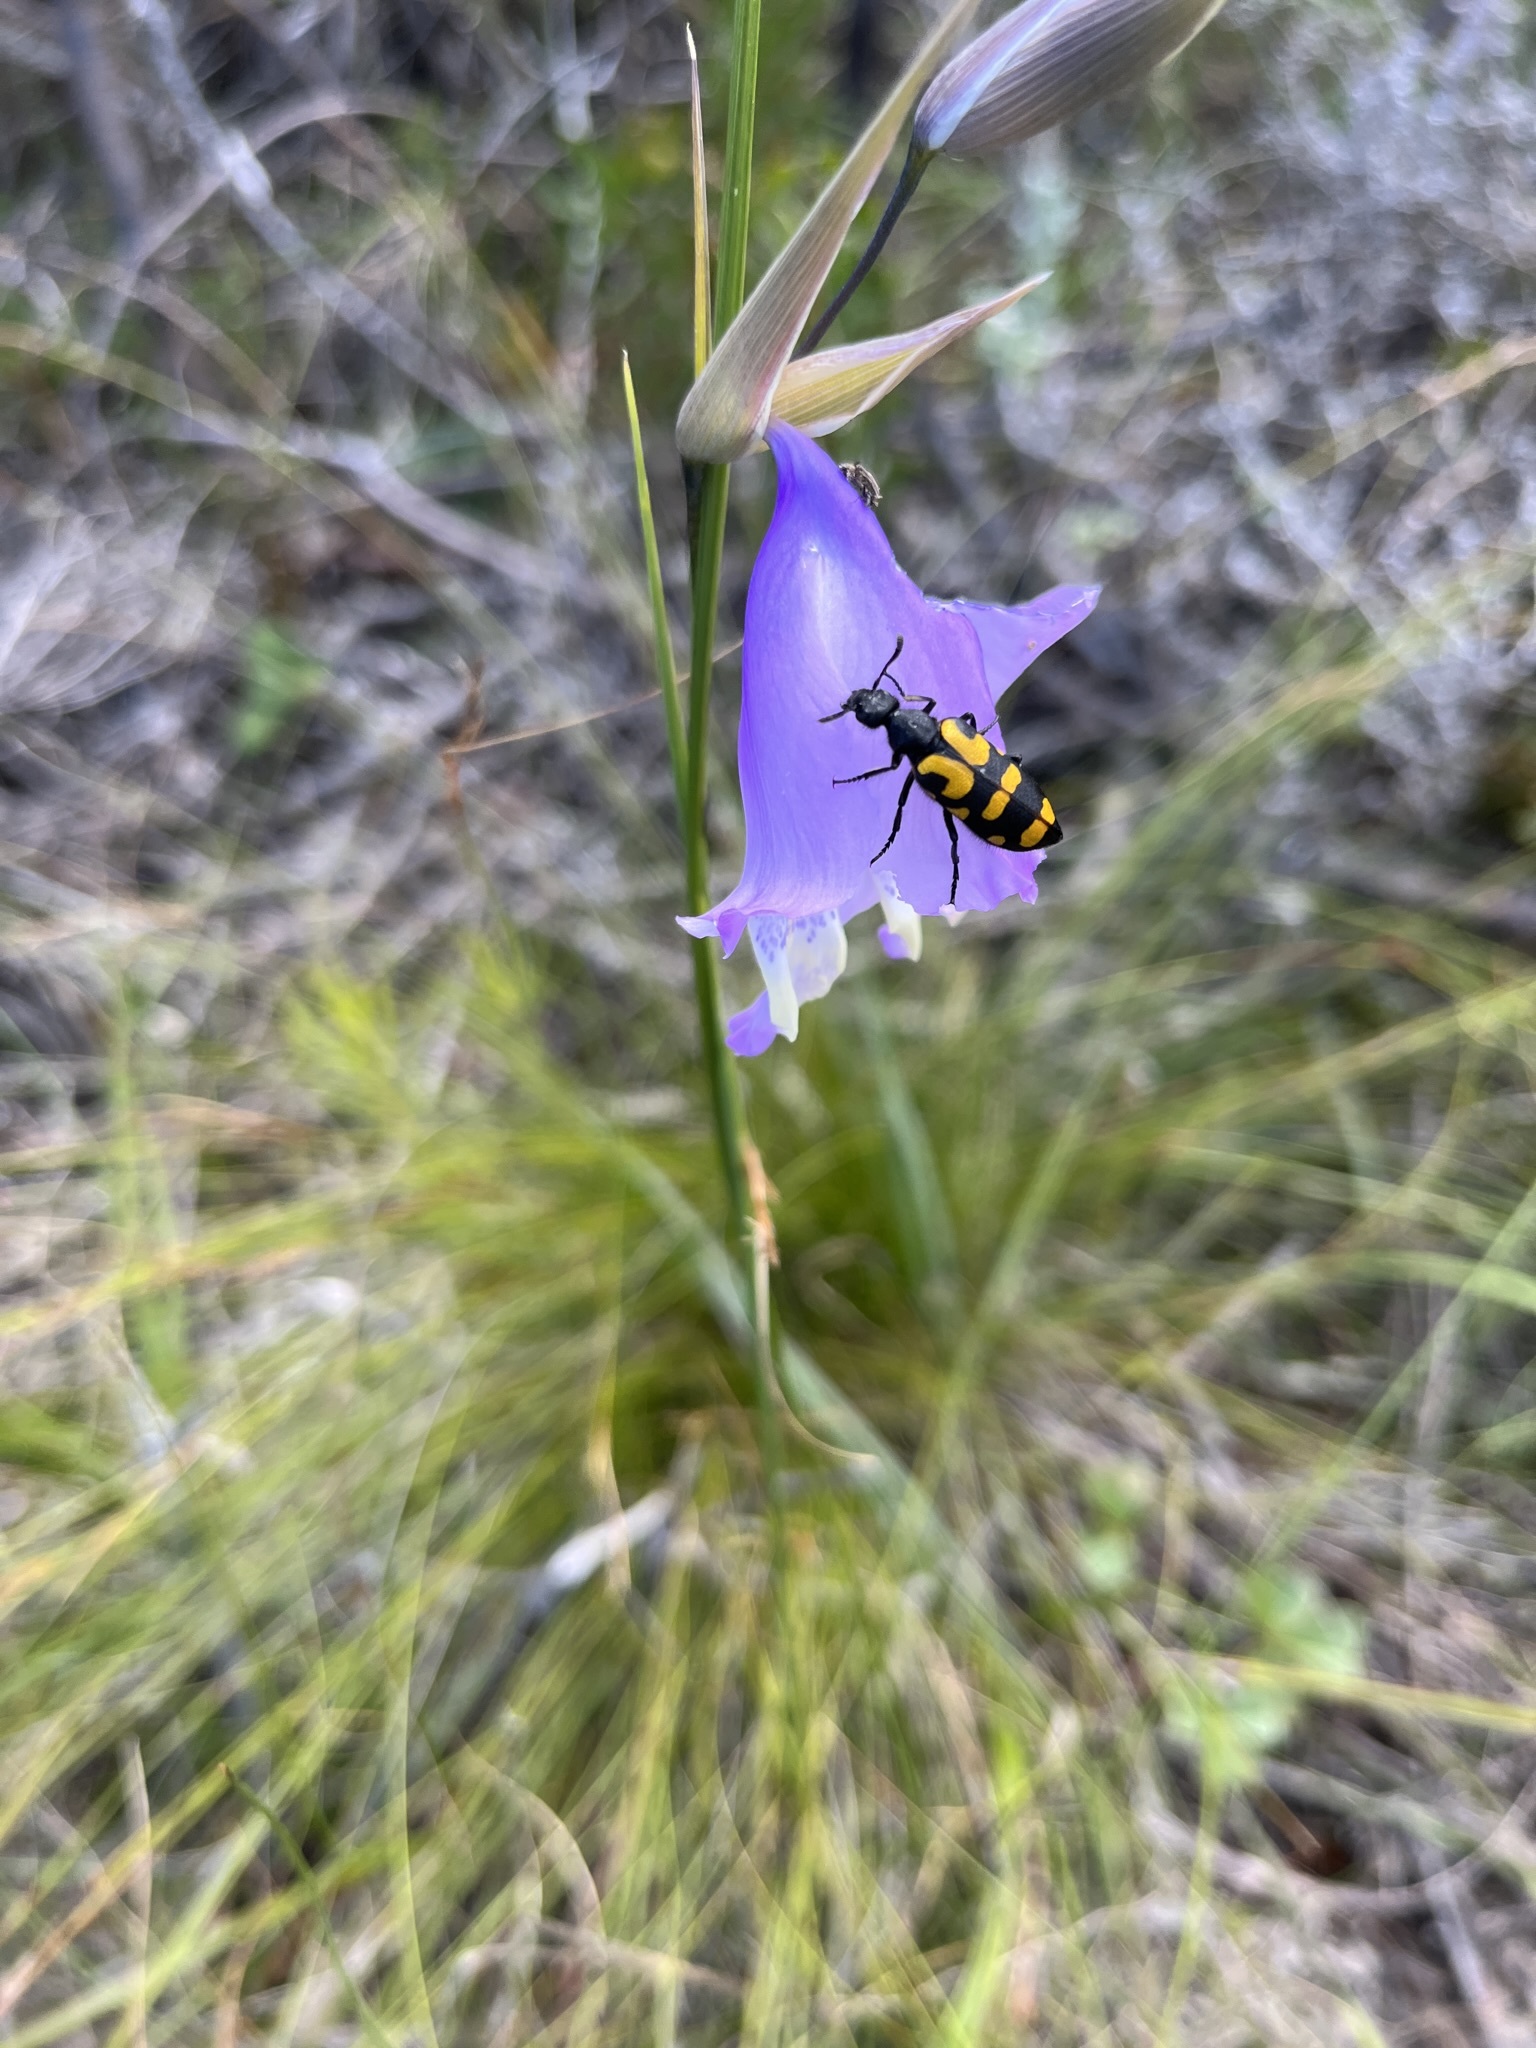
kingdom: Animalia
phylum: Arthropoda
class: Insecta
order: Coleoptera
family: Meloidae
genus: Ceroctis
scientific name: Ceroctis capensis
